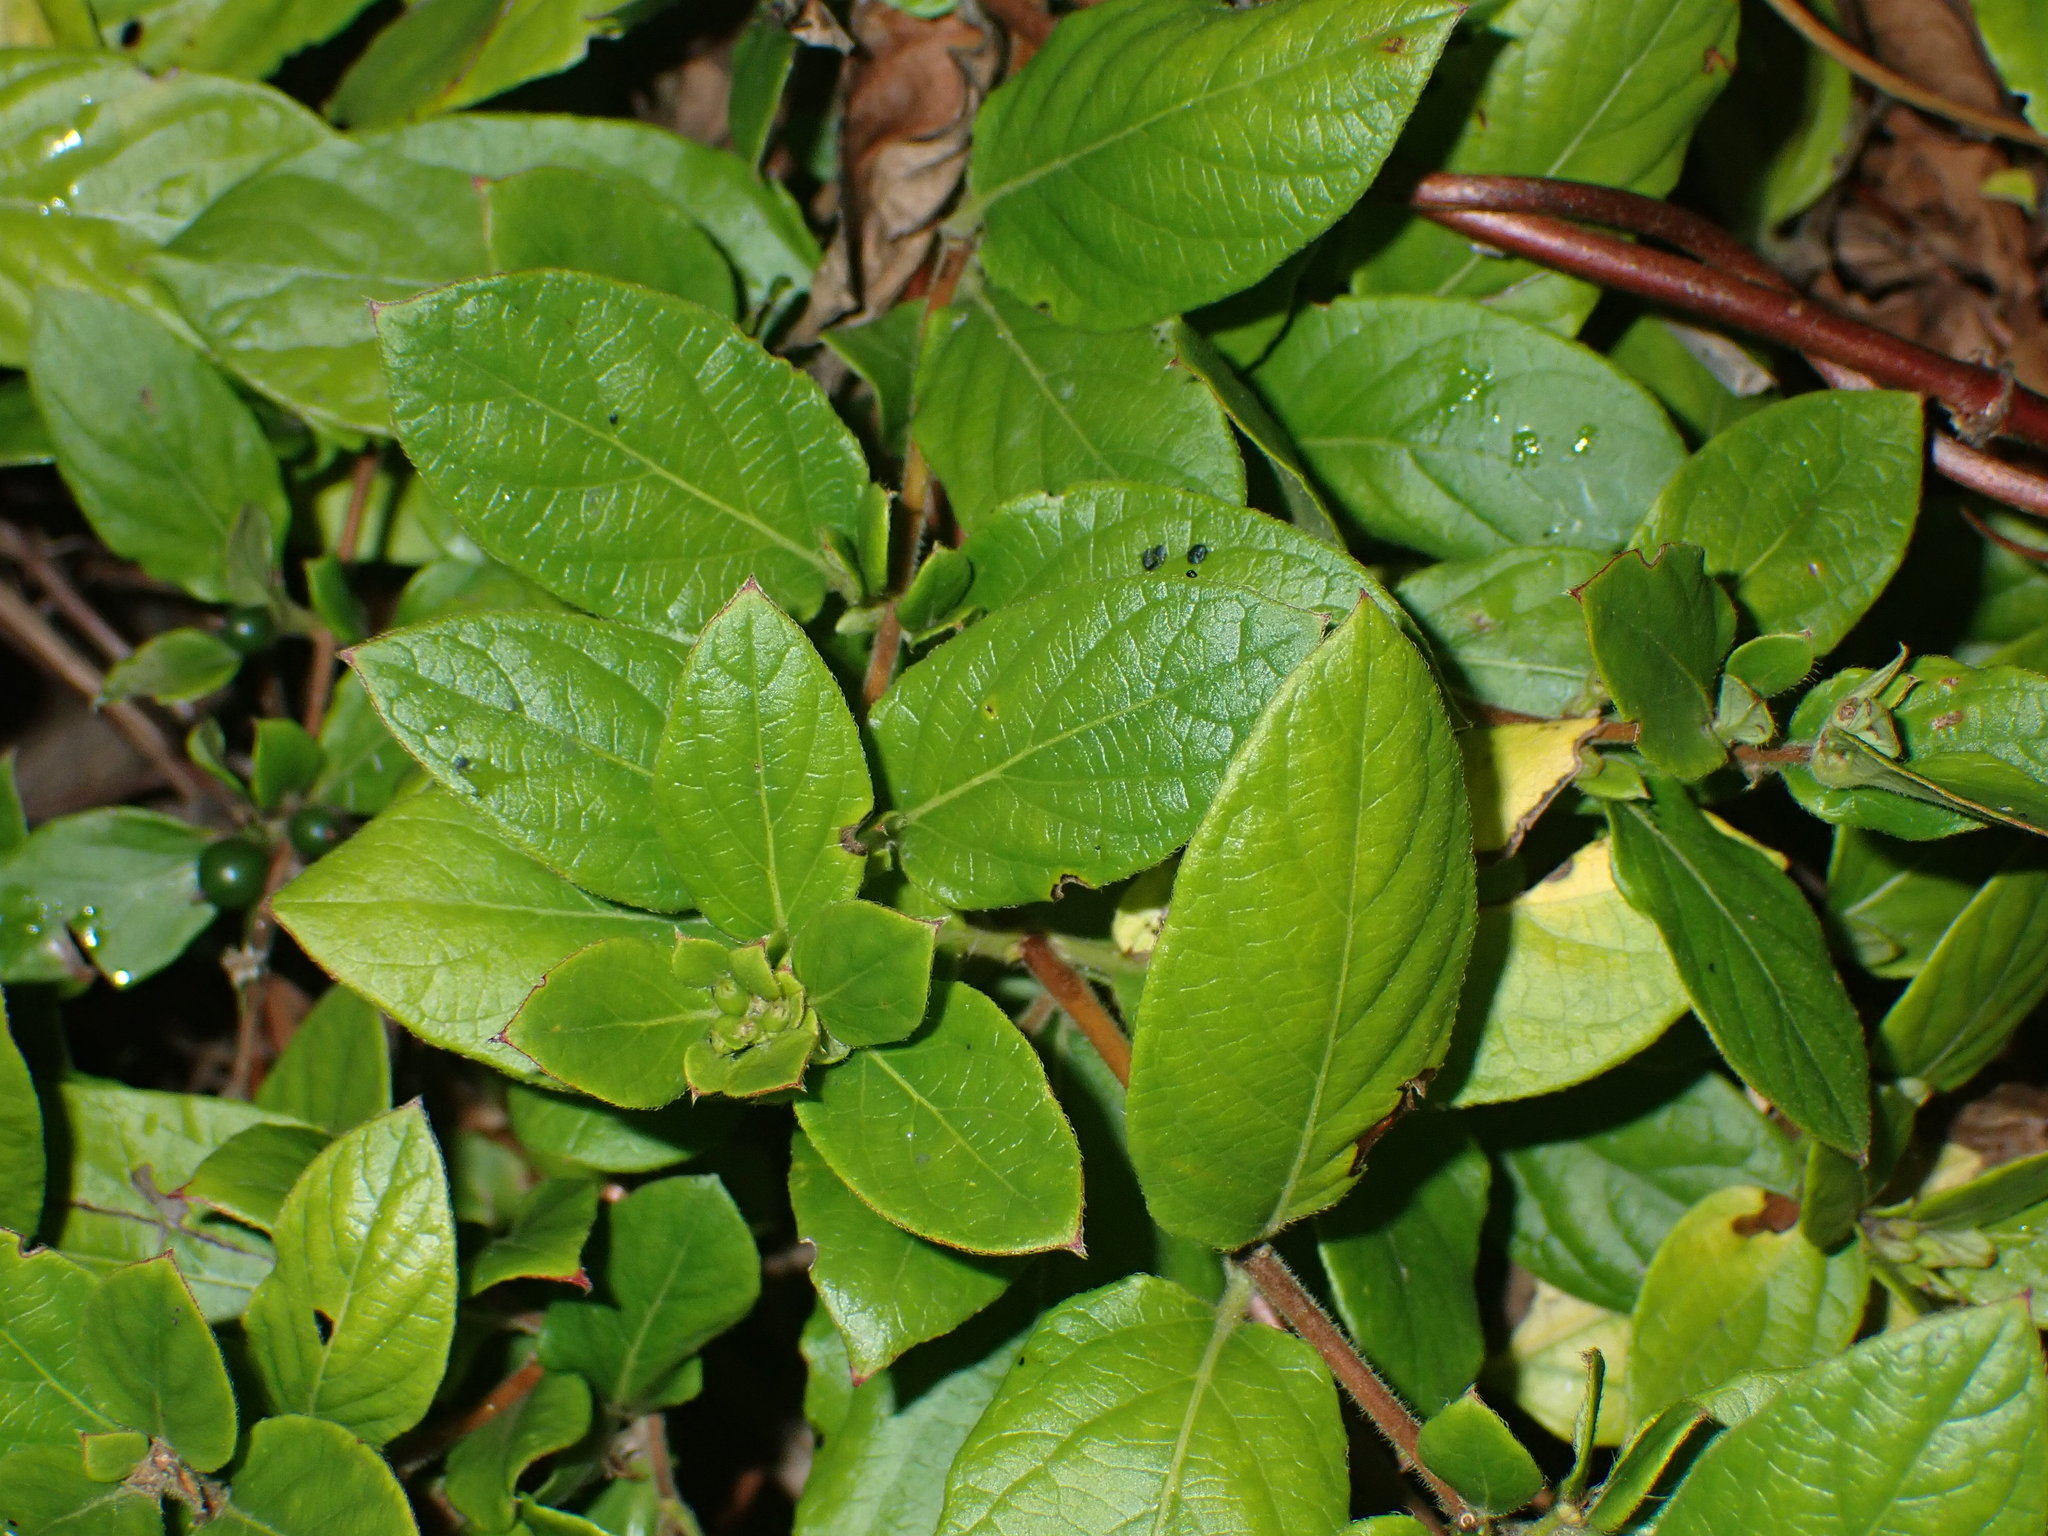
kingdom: Plantae
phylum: Tracheophyta
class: Magnoliopsida
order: Dipsacales
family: Caprifoliaceae
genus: Lonicera
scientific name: Lonicera japonica
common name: Japanese honeysuckle
